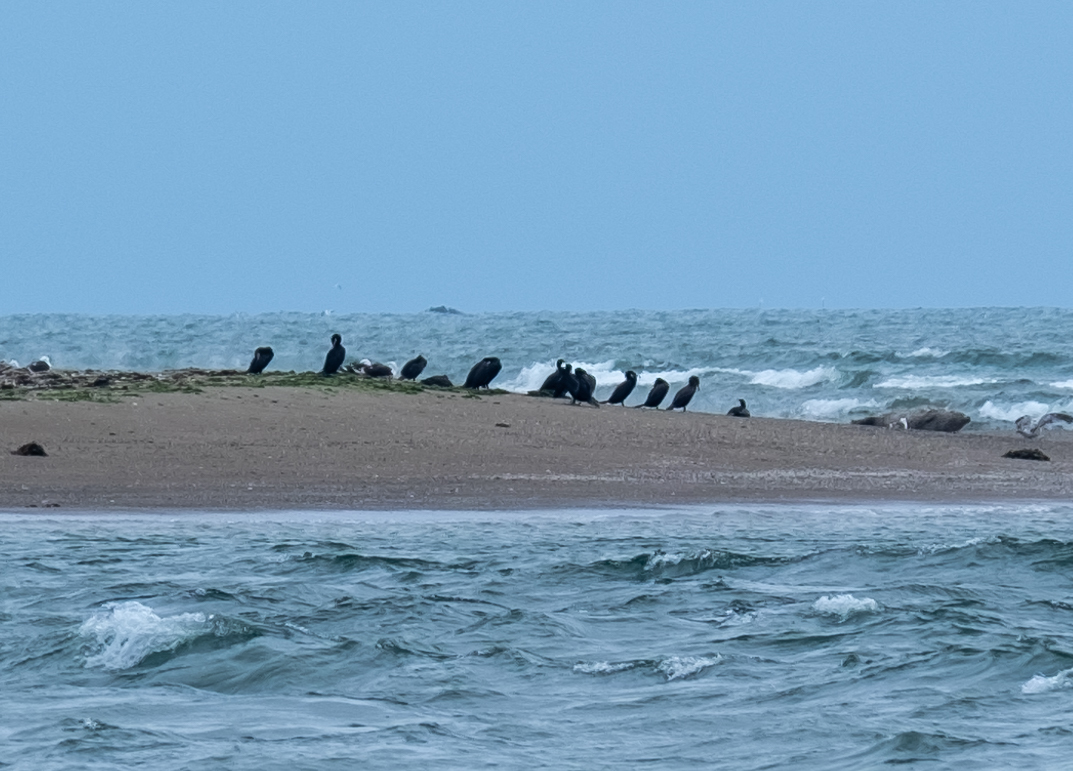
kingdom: Animalia
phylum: Chordata
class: Aves
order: Suliformes
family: Phalacrocoracidae
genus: Phalacrocorax
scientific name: Phalacrocorax carbo
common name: Great cormorant
